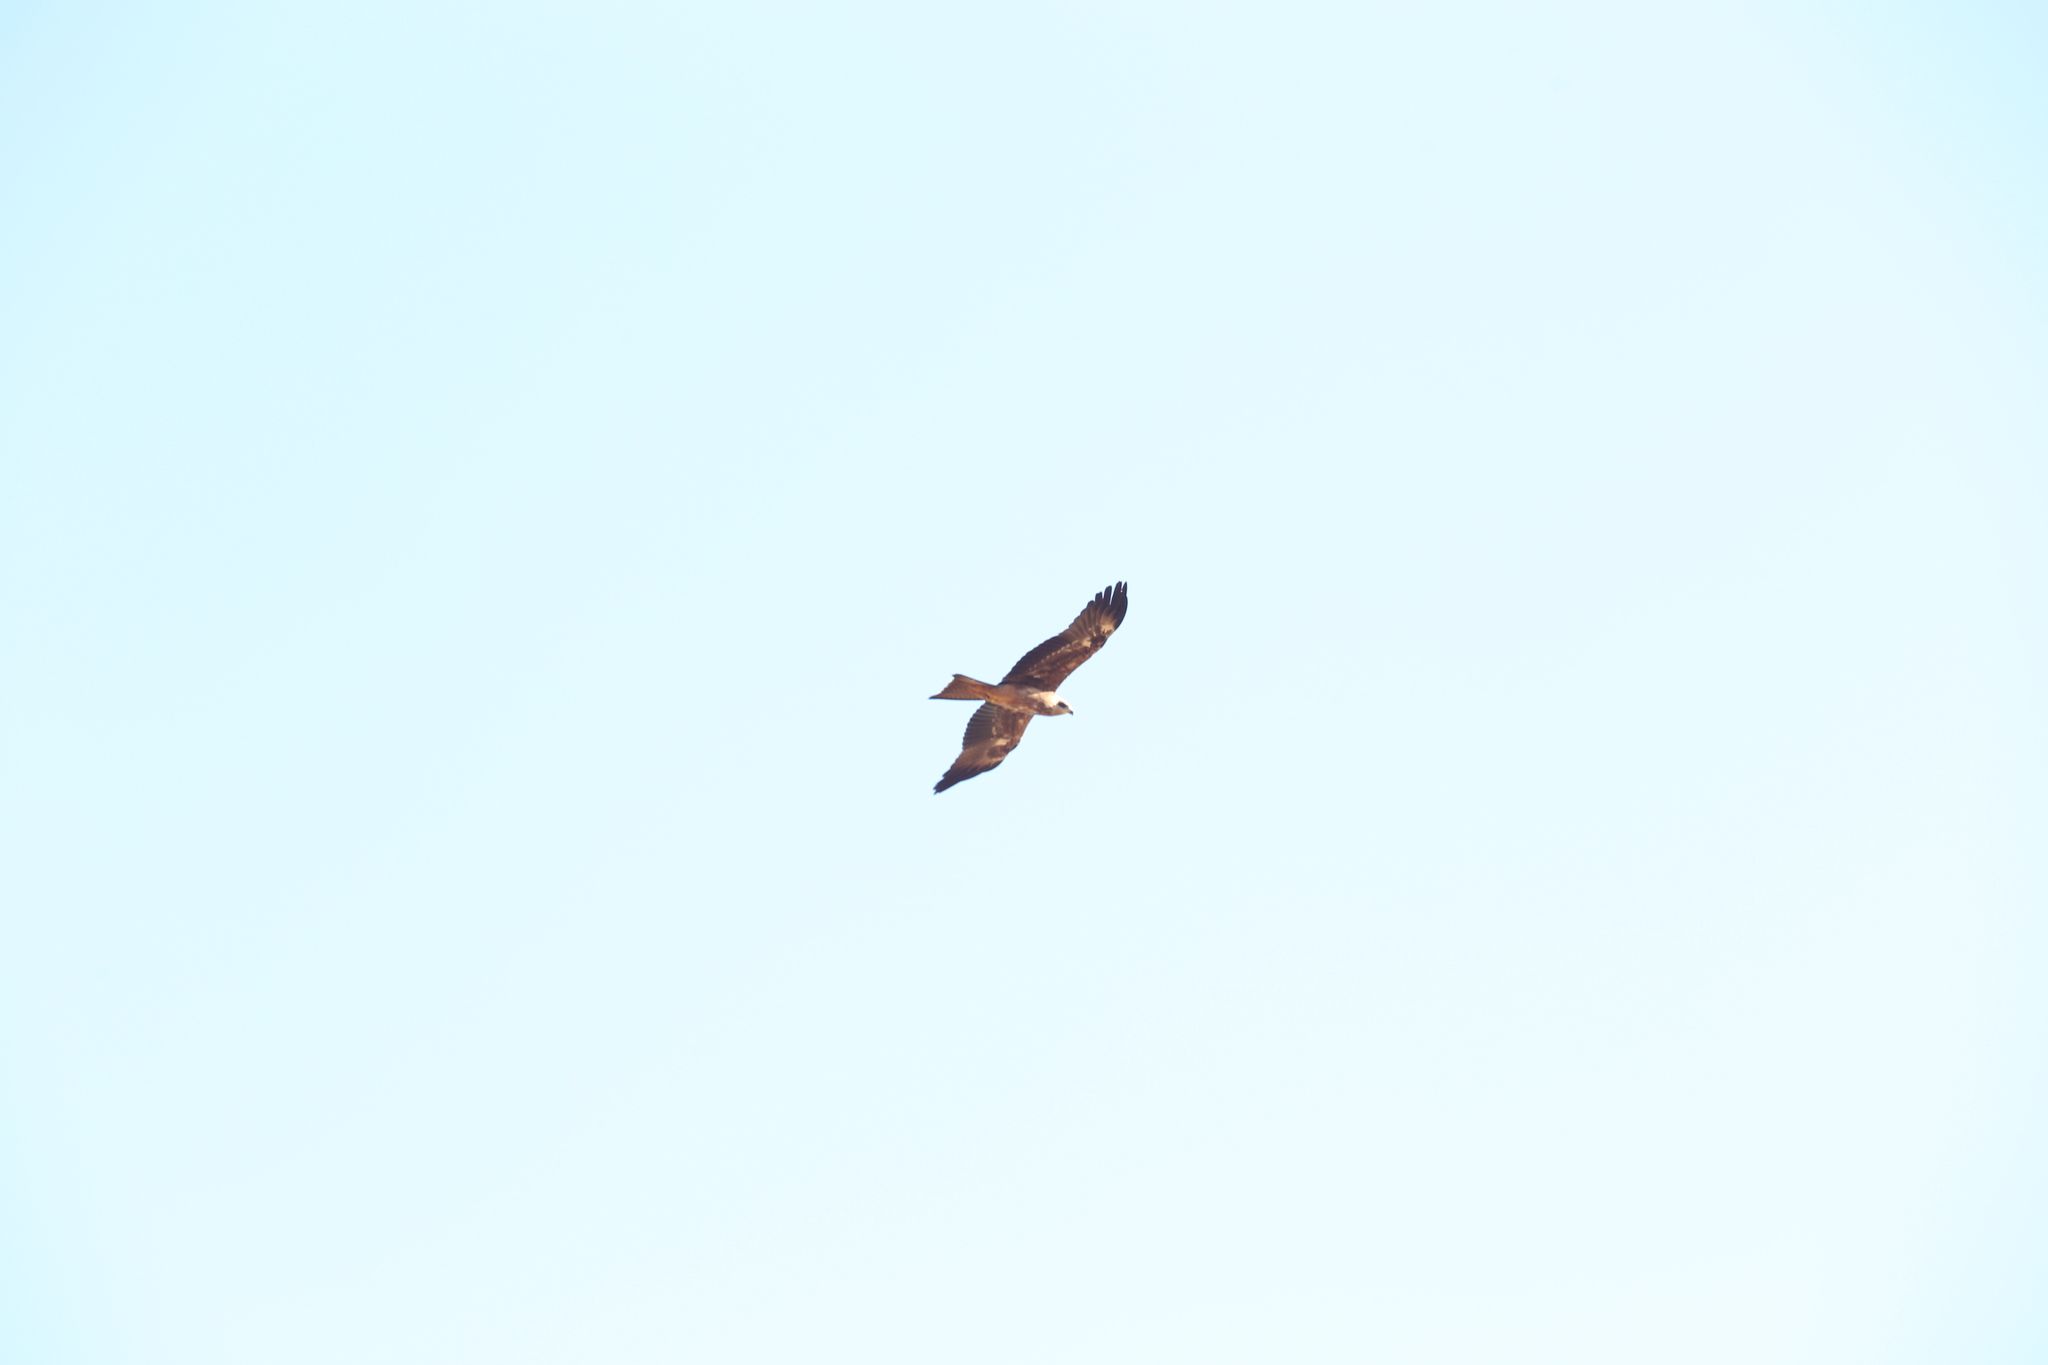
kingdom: Animalia
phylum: Chordata
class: Aves
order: Accipitriformes
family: Accipitridae
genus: Milvus
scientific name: Milvus migrans
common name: Black kite
